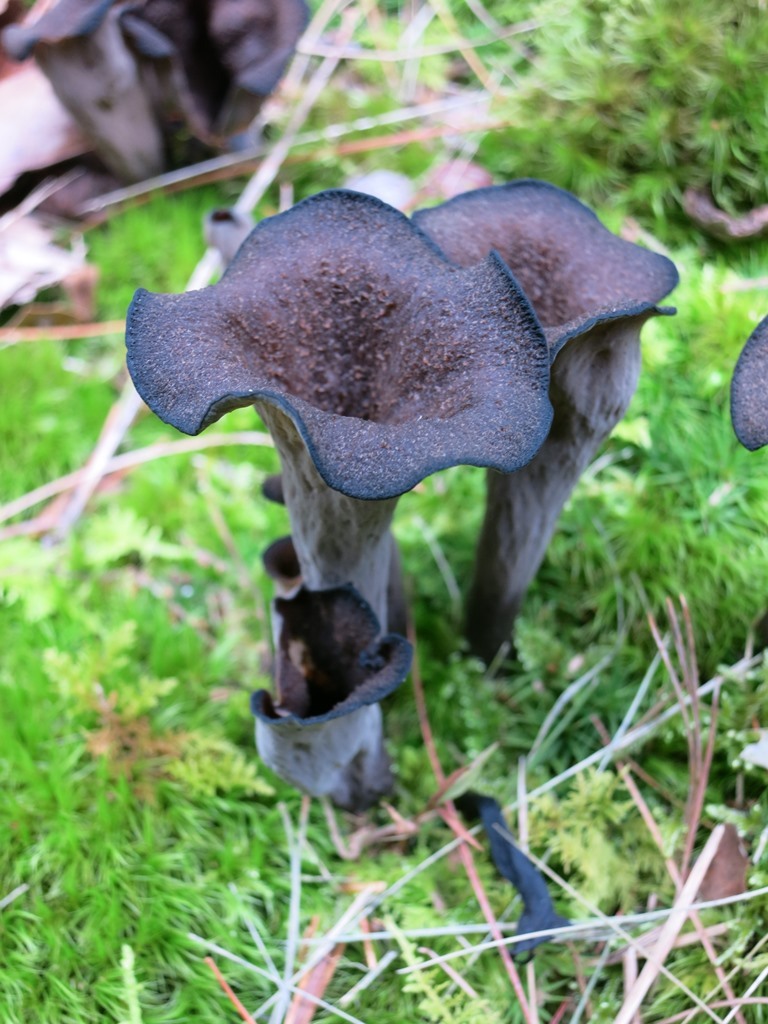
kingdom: Fungi
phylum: Basidiomycota
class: Agaricomycetes
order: Cantharellales
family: Hydnaceae
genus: Craterellus
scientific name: Craterellus cornucopioides
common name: Horn of plenty
